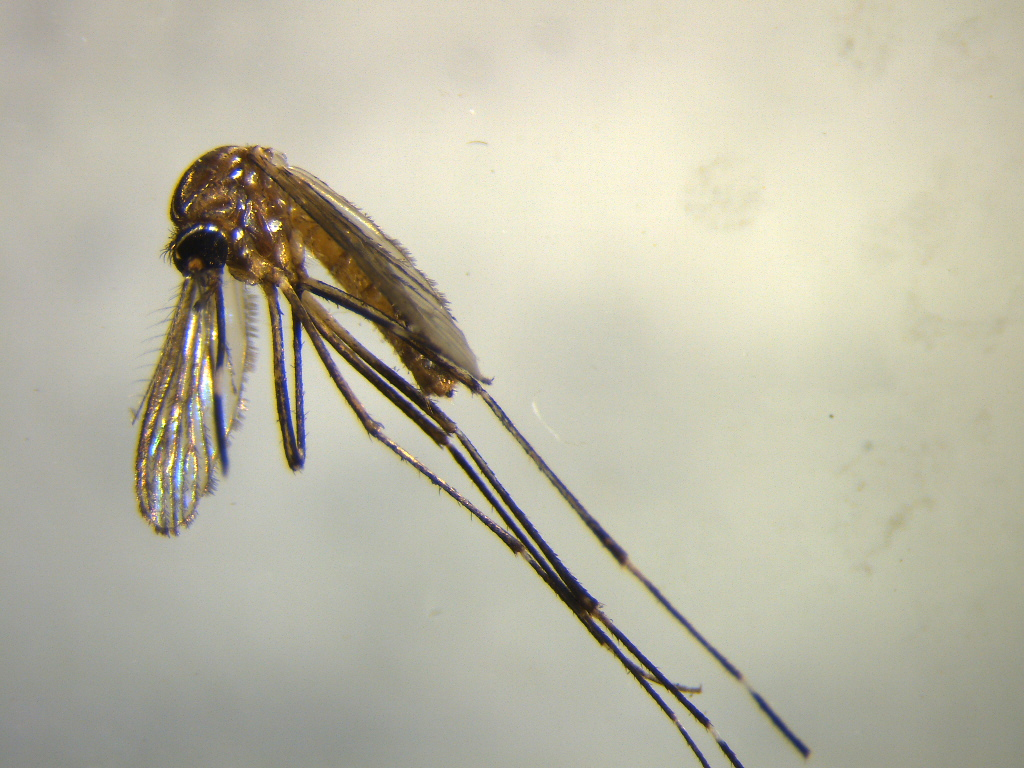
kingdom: Animalia
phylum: Arthropoda
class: Insecta
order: Diptera
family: Culicidae
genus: Aedes
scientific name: Aedes notoscriptus
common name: Australian backyard mosquito
